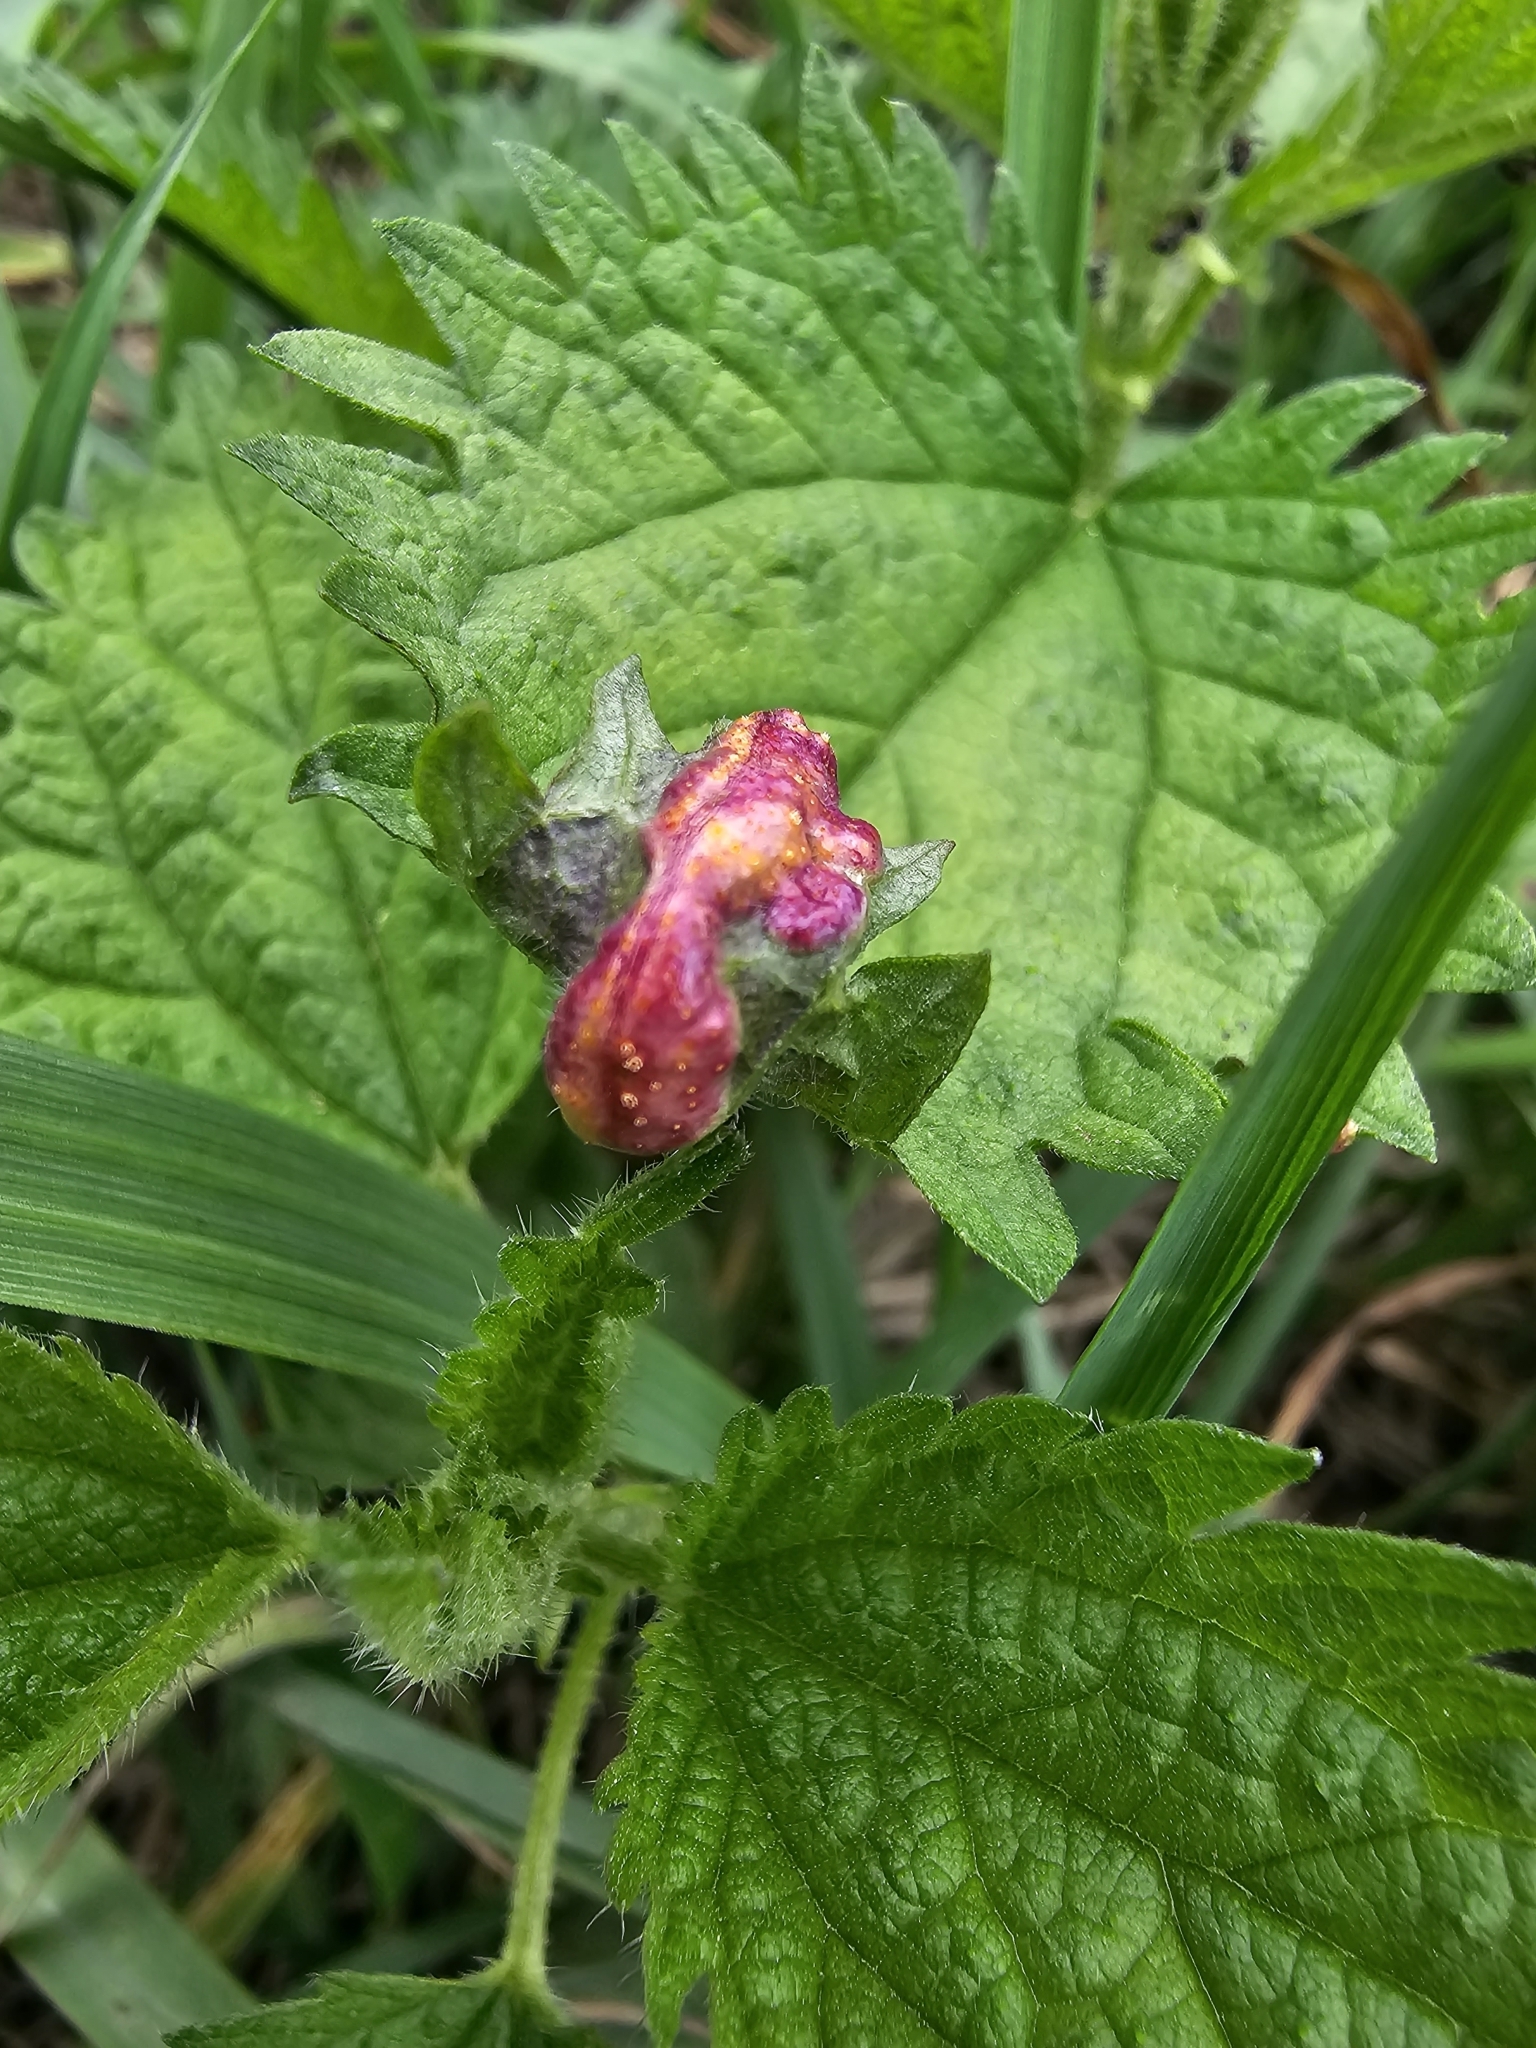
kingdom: Fungi
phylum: Basidiomycota
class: Pucciniomycetes
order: Pucciniales
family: Pucciniaceae
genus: Puccinia
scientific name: Puccinia urticata
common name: Nettle clustercup rust fungus
